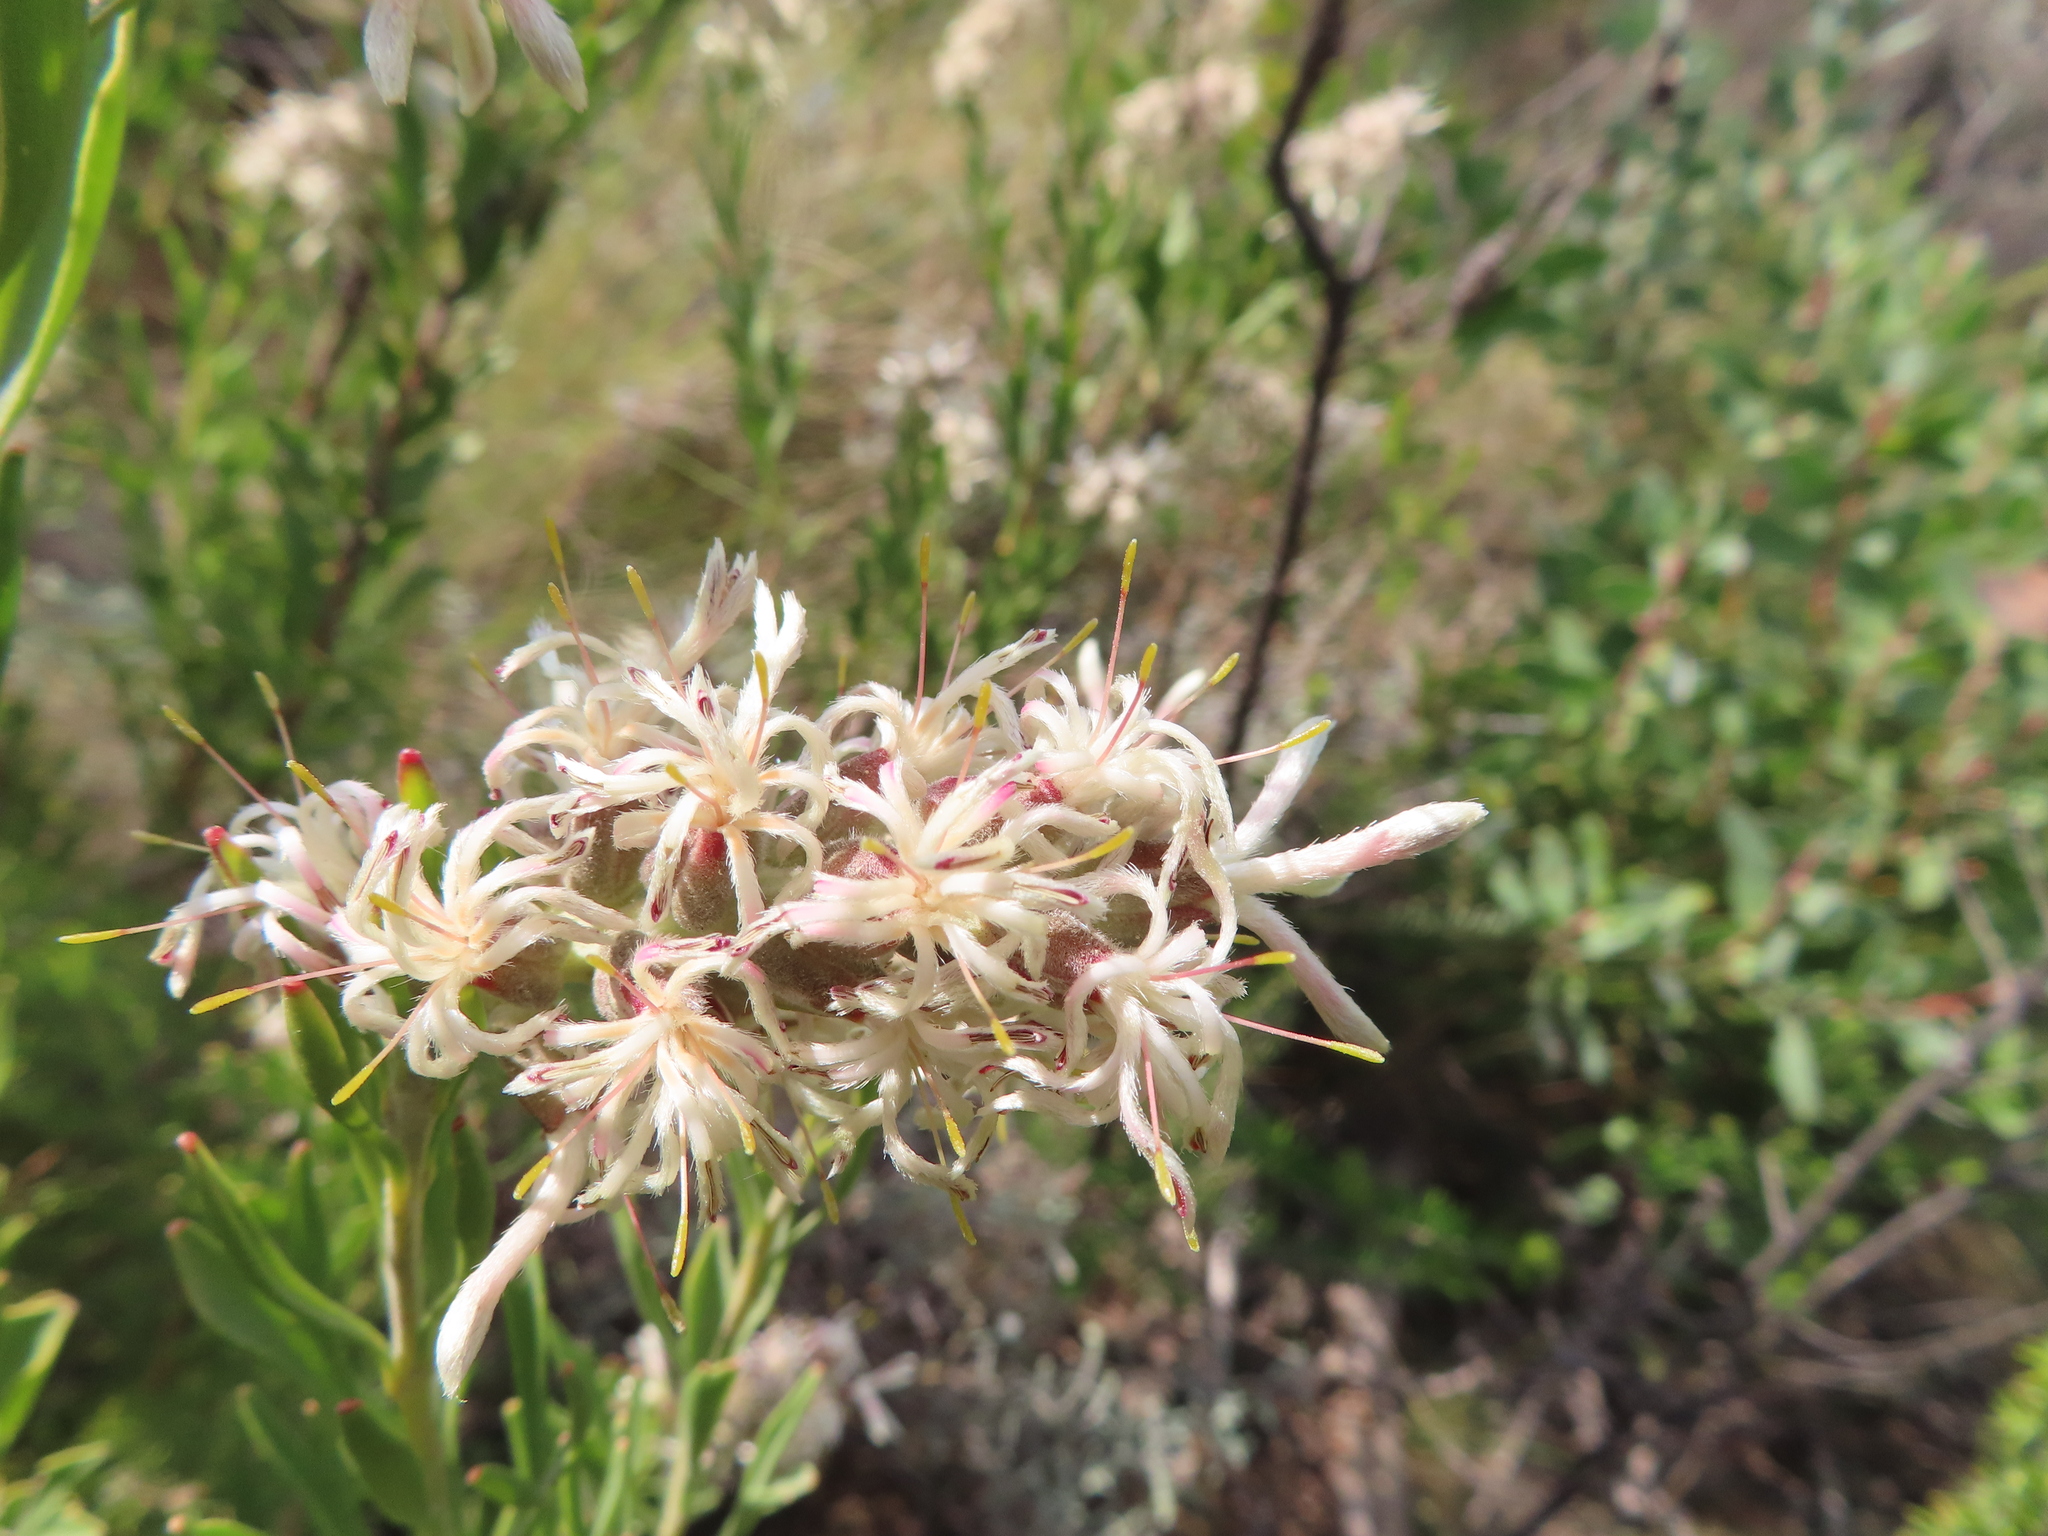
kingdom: Plantae
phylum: Tracheophyta
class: Magnoliopsida
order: Proteales
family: Proteaceae
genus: Paranomus
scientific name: Paranomus dregei
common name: Scented sceptre
